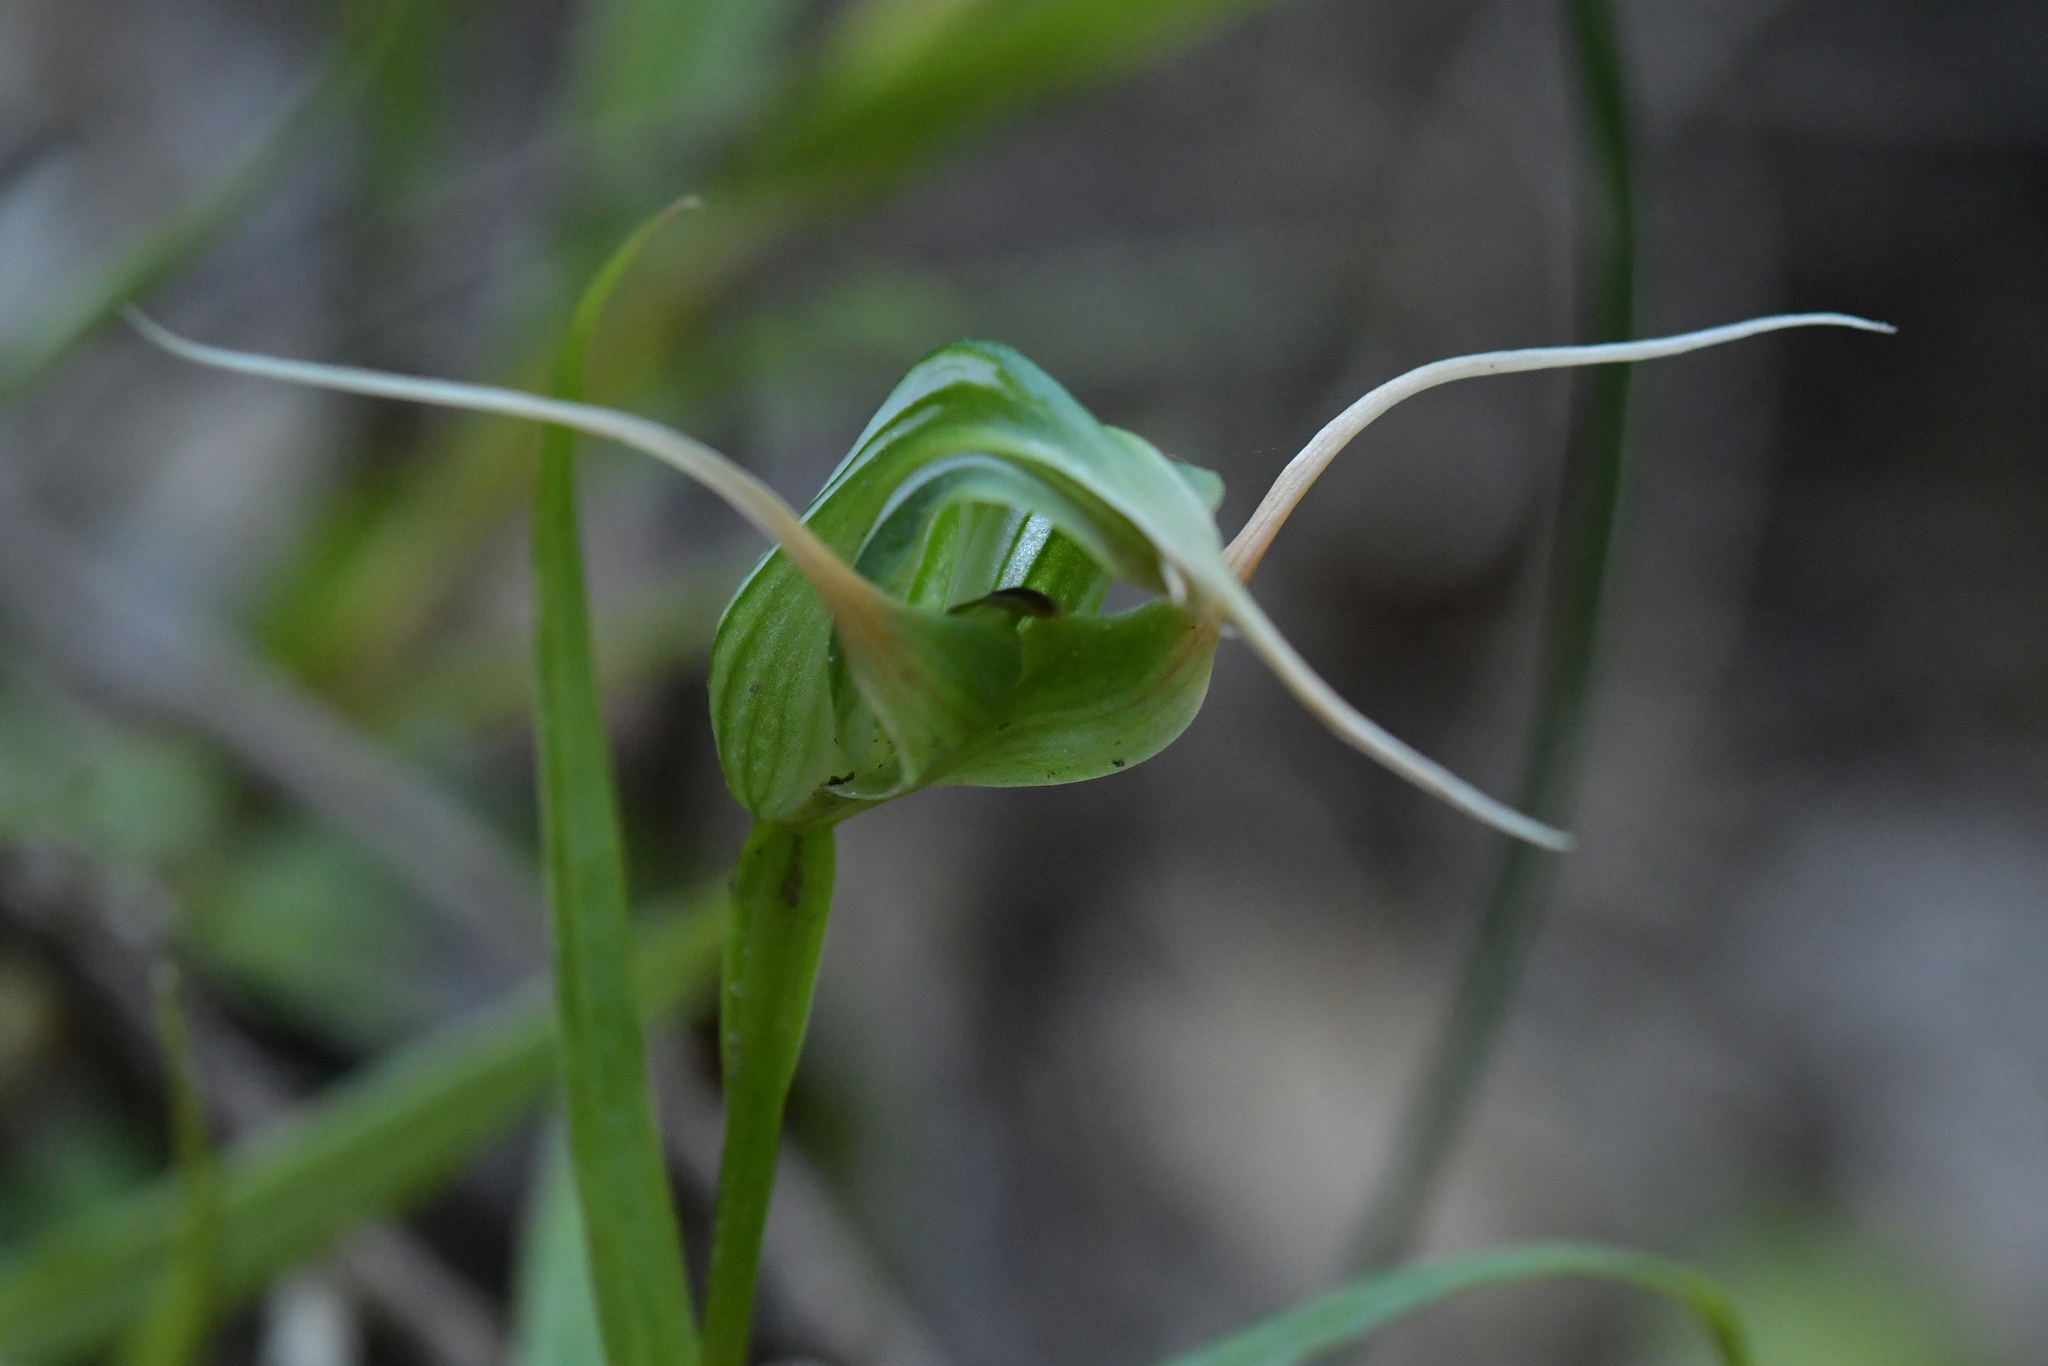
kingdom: Plantae
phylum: Tracheophyta
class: Liliopsida
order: Asparagales
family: Orchidaceae
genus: Pterostylis
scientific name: Pterostylis banksii
